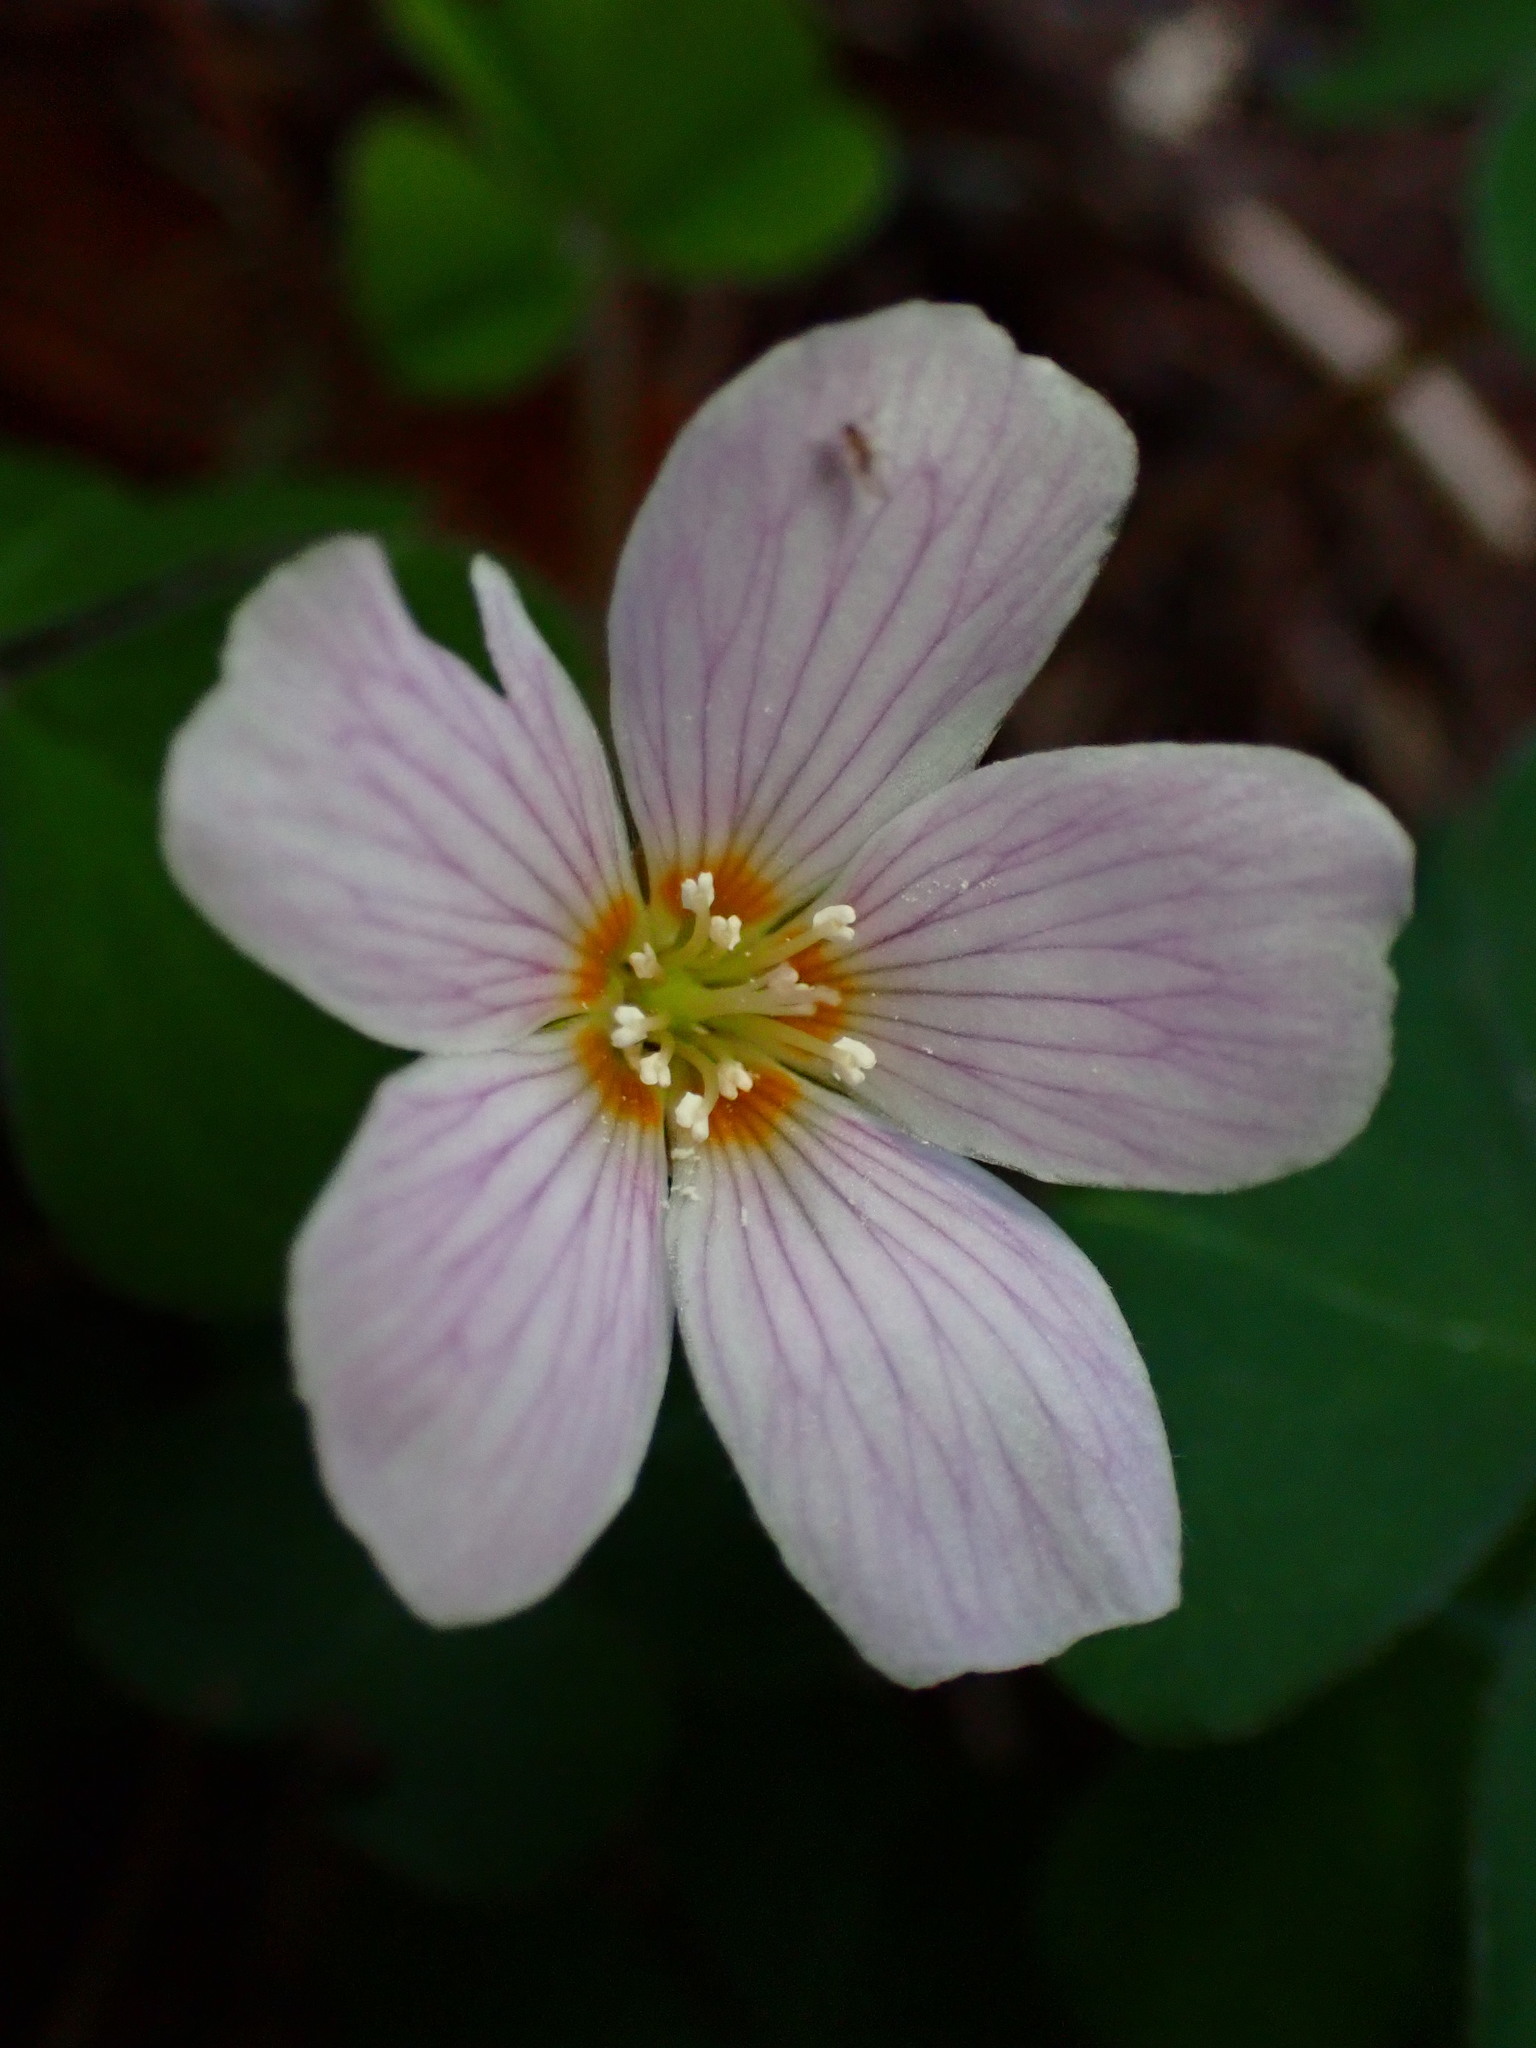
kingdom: Plantae
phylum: Tracheophyta
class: Magnoliopsida
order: Oxalidales
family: Oxalidaceae
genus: Oxalis
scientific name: Oxalis oregana
